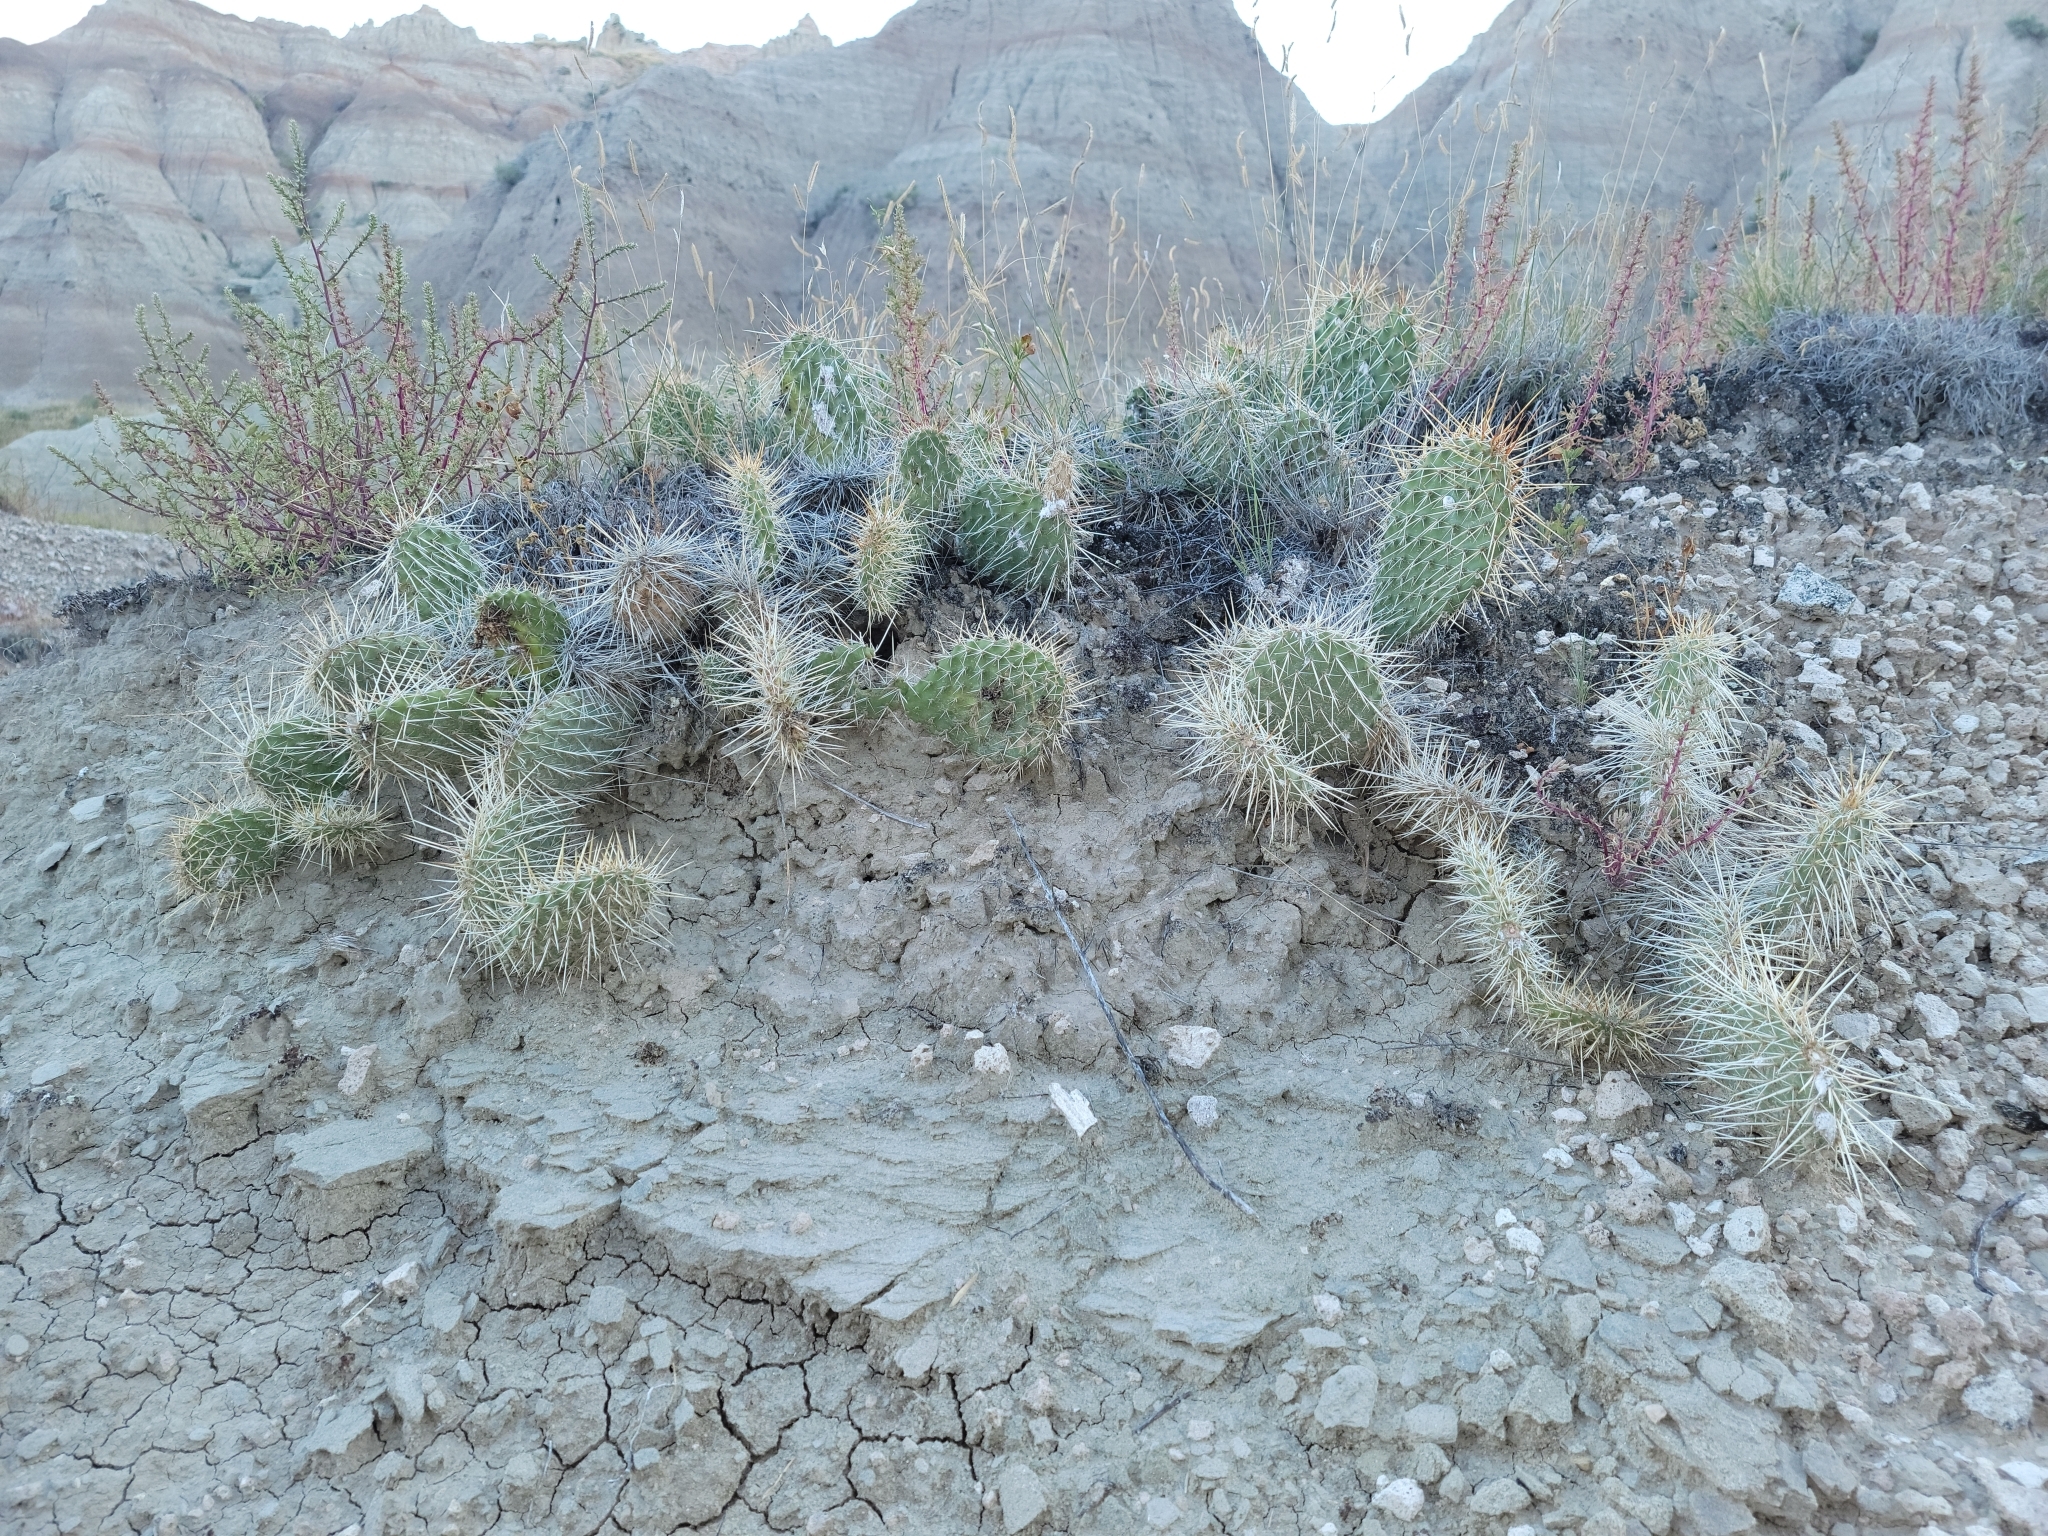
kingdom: Plantae
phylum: Tracheophyta
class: Magnoliopsida
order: Caryophyllales
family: Cactaceae
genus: Opuntia
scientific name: Opuntia polyacantha
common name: Plains prickly-pear
